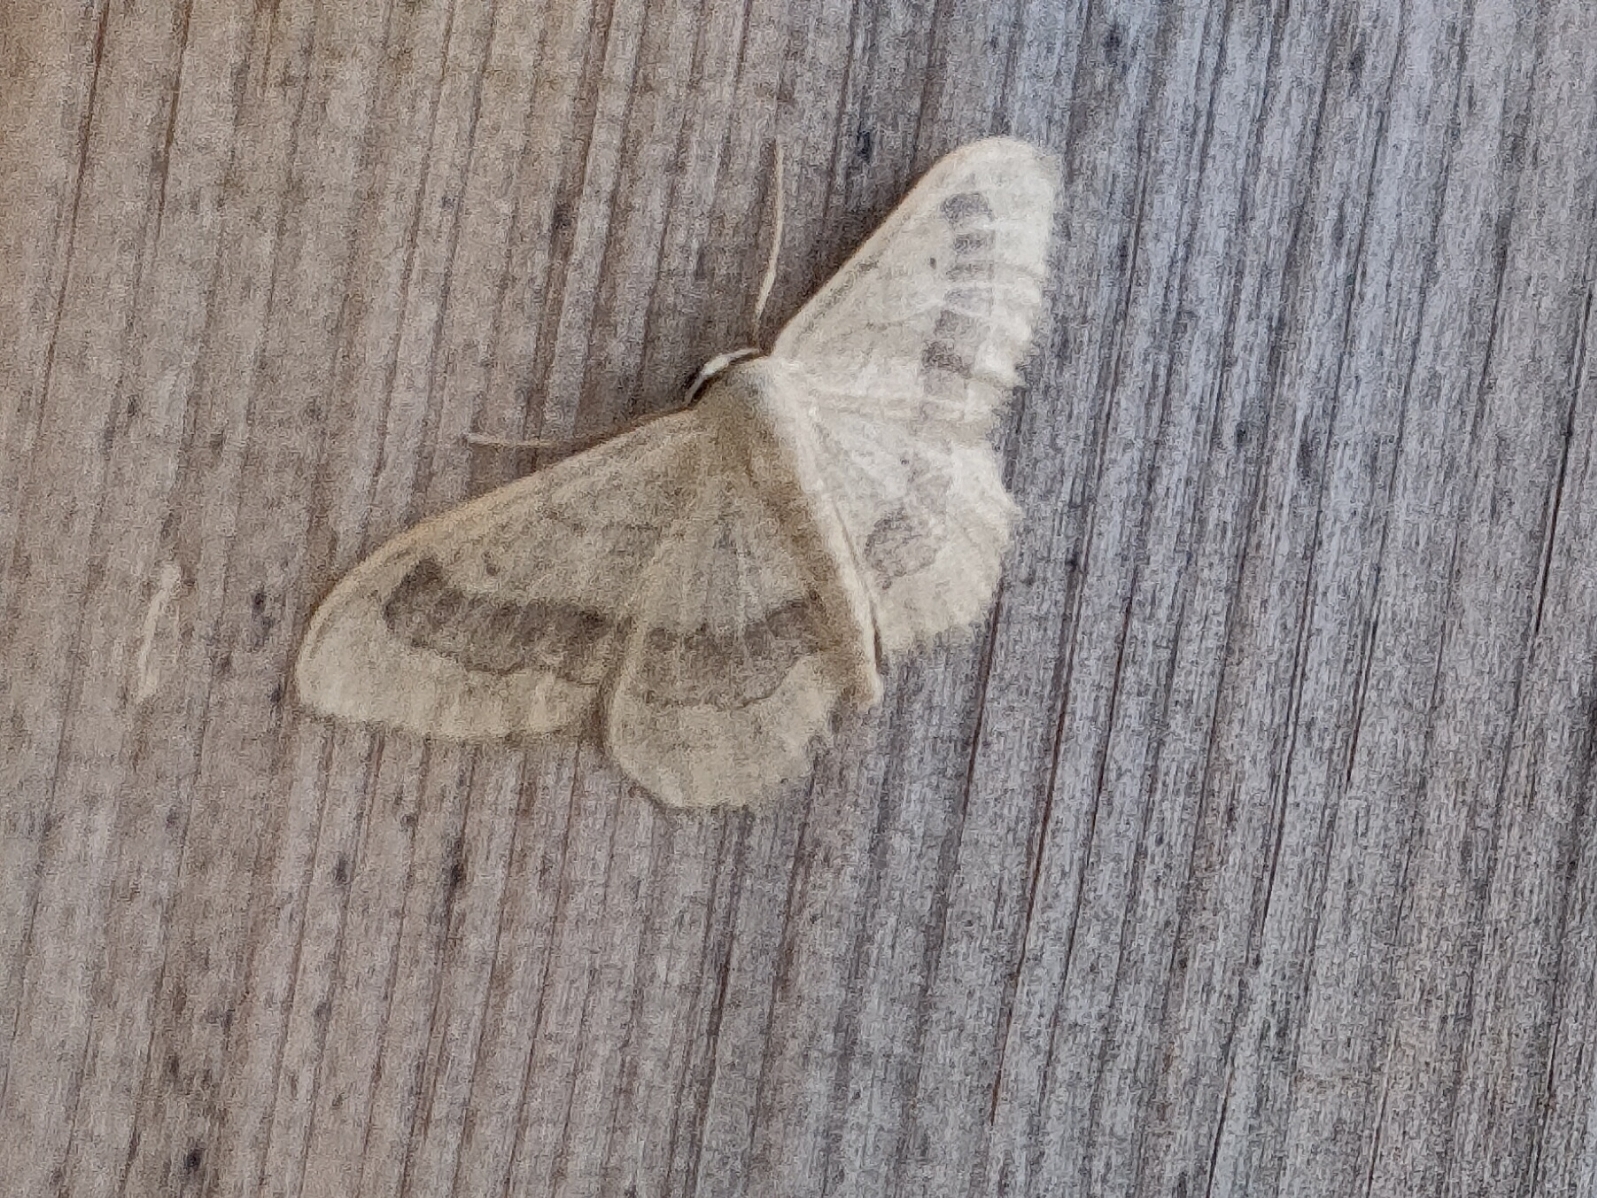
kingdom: Animalia
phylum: Arthropoda
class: Insecta
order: Lepidoptera
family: Geometridae
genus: Idaea
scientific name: Idaea aversata
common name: Riband wave
